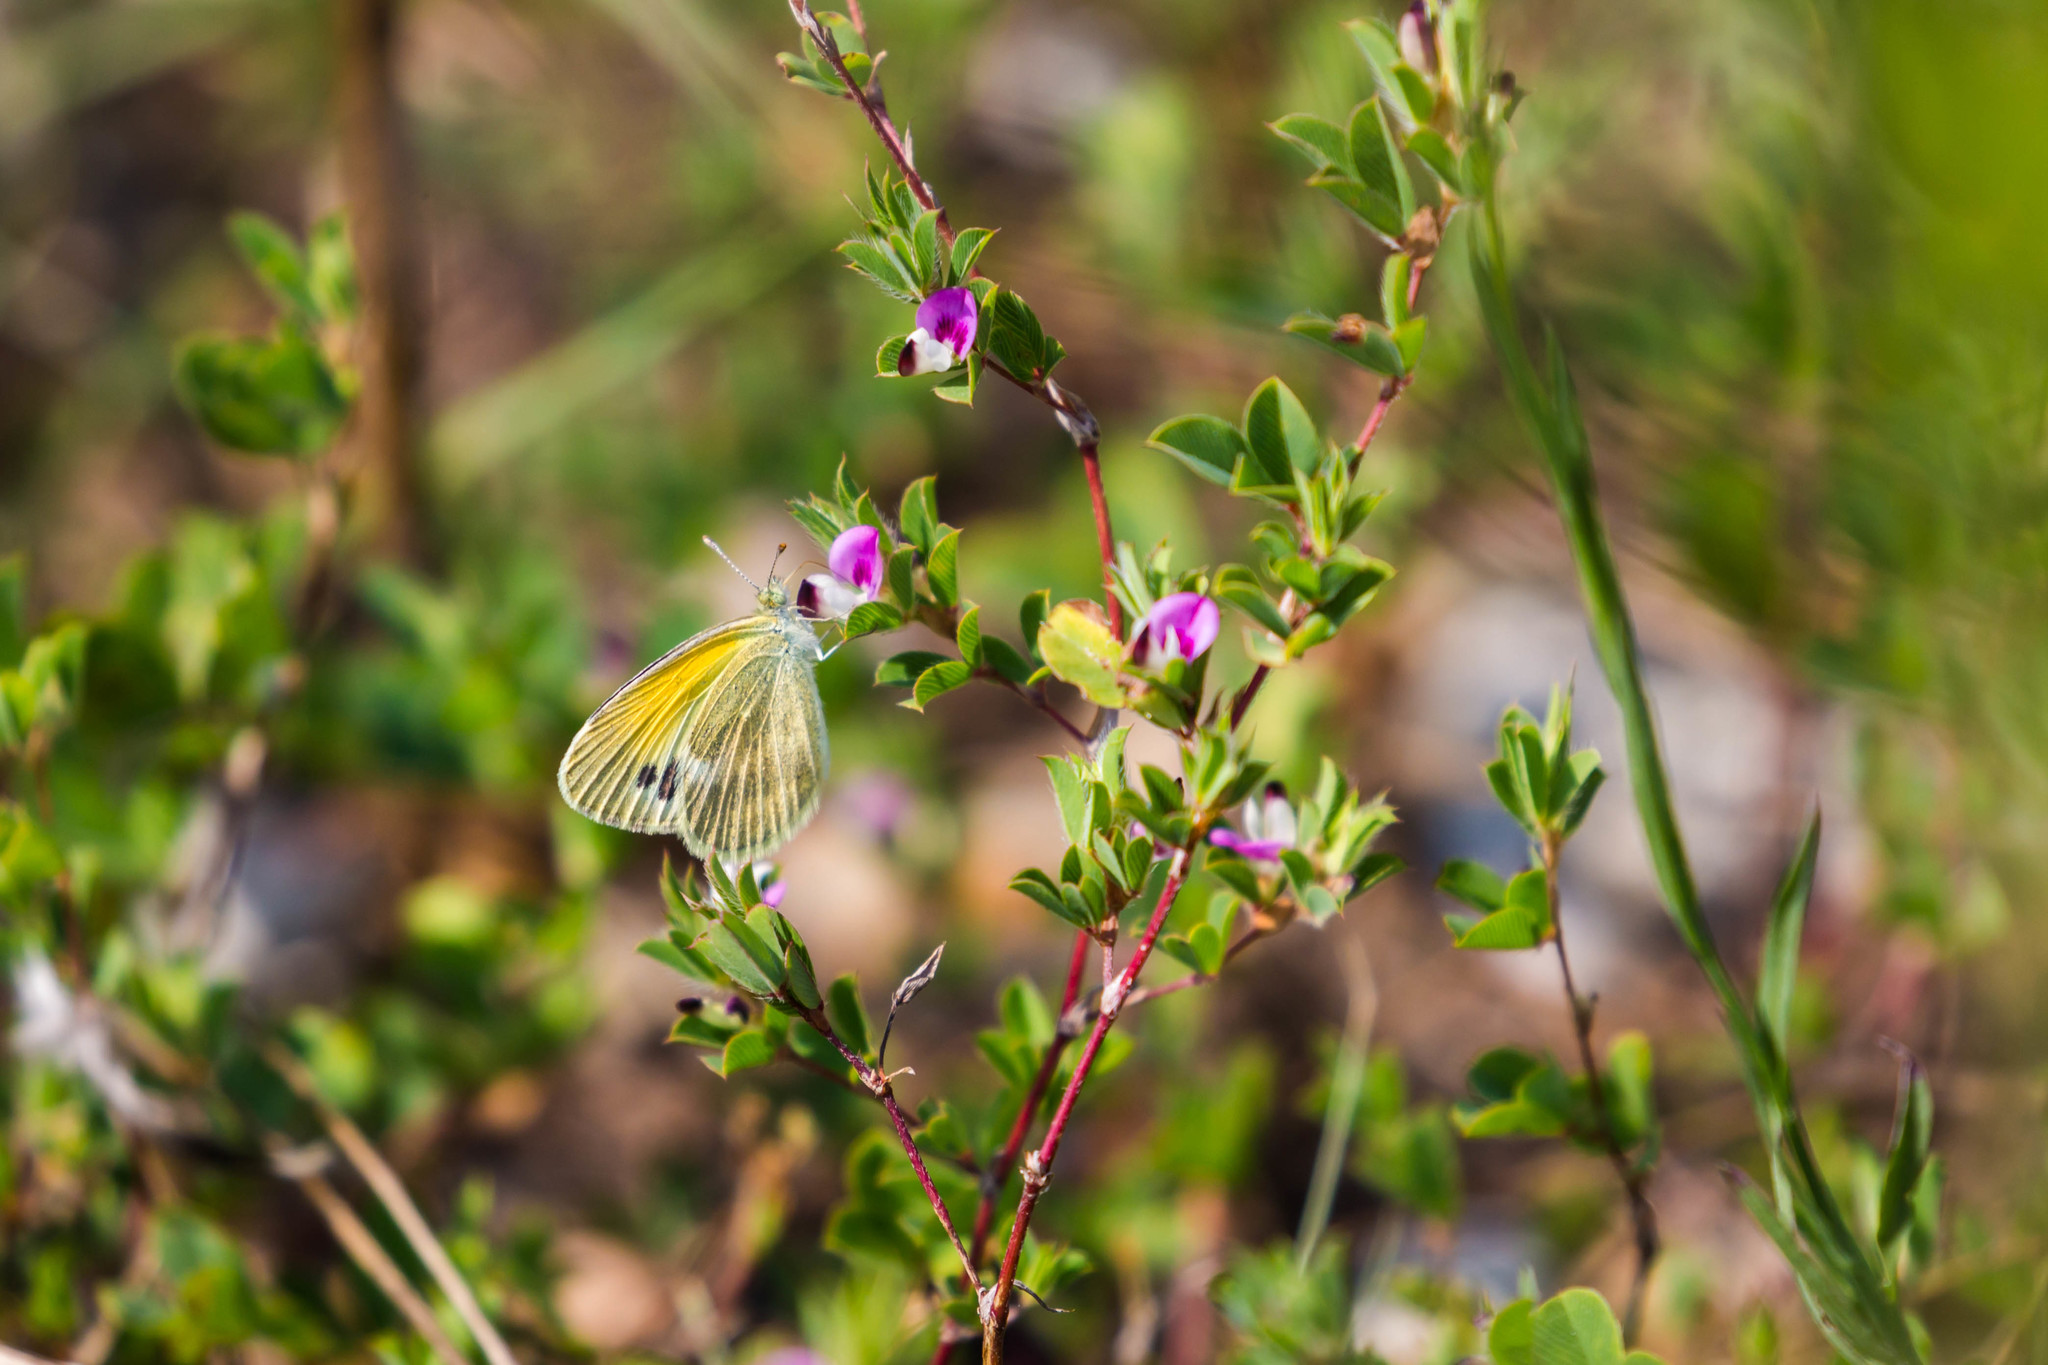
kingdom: Animalia
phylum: Arthropoda
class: Insecta
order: Lepidoptera
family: Pieridae
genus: Nathalis
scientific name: Nathalis iole
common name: Dainty sulphur
